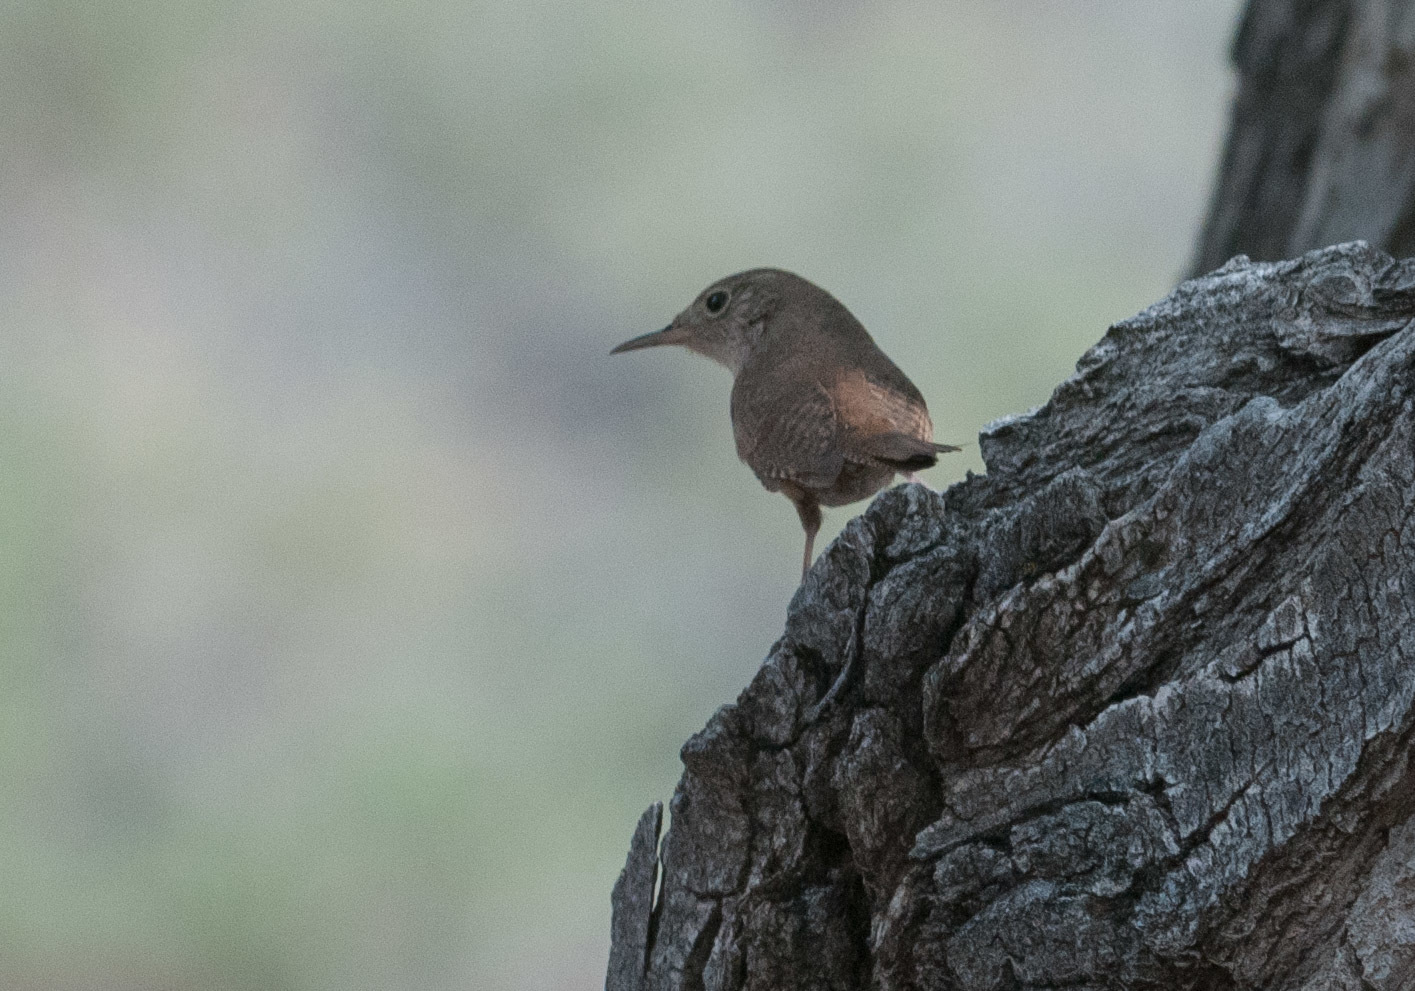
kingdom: Animalia
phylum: Chordata
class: Aves
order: Passeriformes
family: Troglodytidae
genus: Troglodytes
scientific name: Troglodytes aedon
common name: House wren
